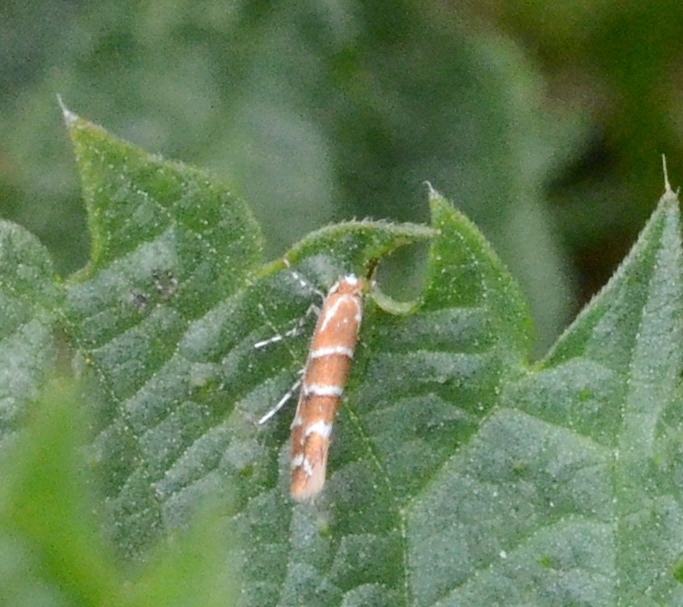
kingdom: Animalia
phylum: Arthropoda
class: Insecta
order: Lepidoptera
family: Gracillariidae
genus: Cameraria
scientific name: Cameraria ohridella
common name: Horse-chestnut leaf-miner
